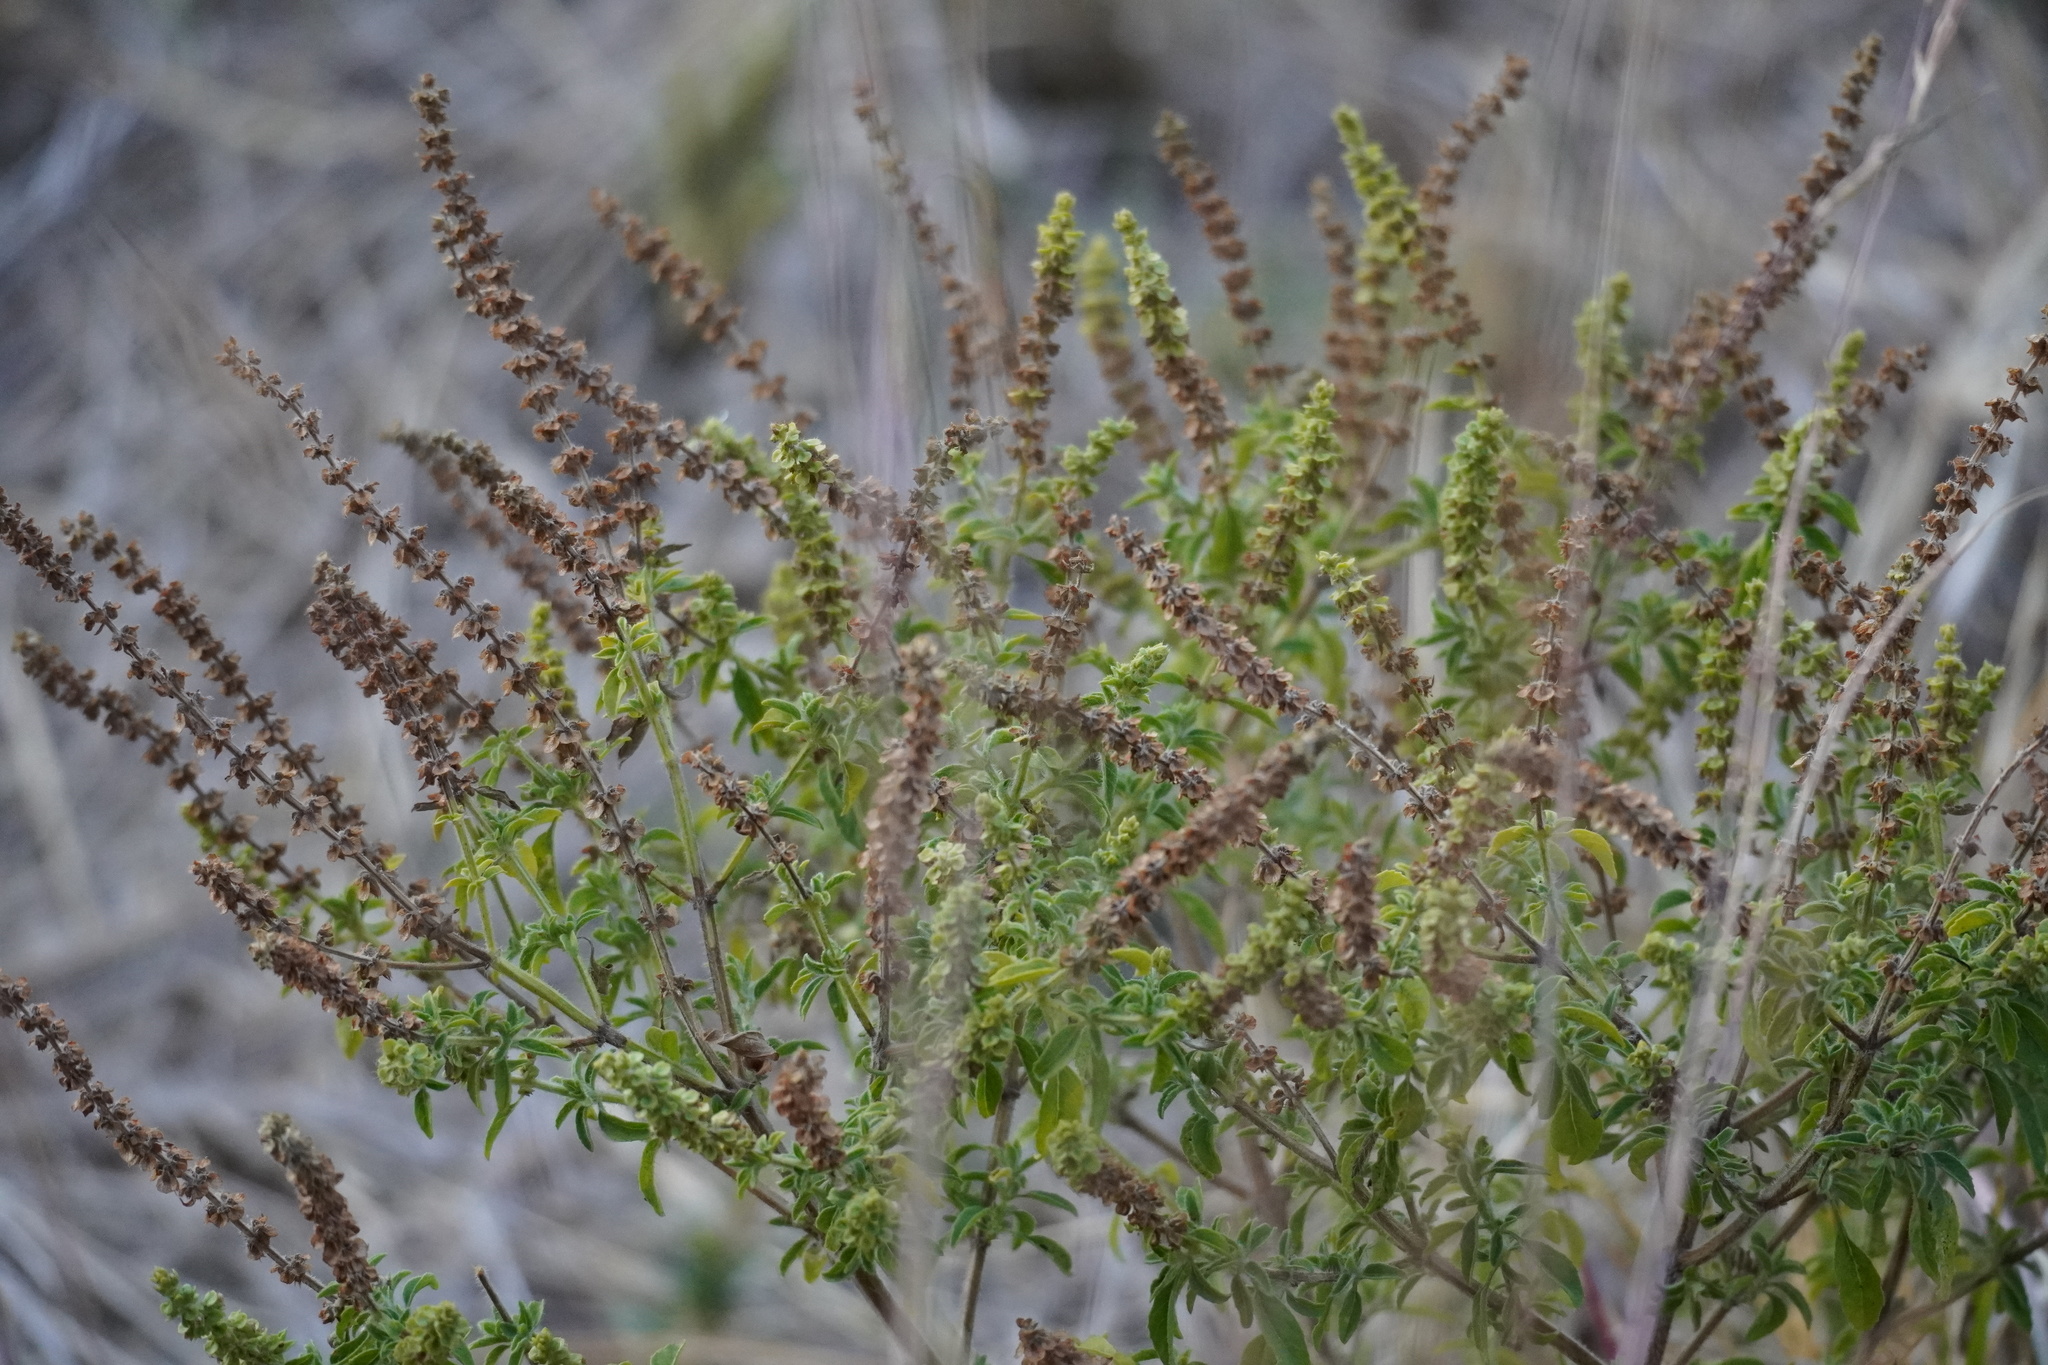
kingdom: Plantae
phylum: Tracheophyta
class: Magnoliopsida
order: Lamiales
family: Lamiaceae
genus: Ocimum
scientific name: Ocimum americanum
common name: American basil
